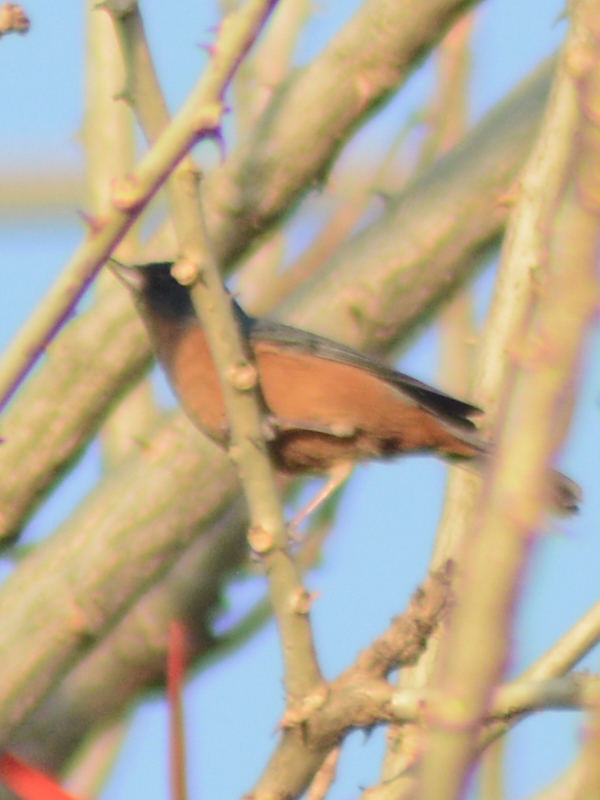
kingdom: Animalia
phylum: Chordata
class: Aves
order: Passeriformes
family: Thraupidae
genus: Diglossa
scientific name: Diglossa baritula
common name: Cinnamon-bellied flowerpiercer
